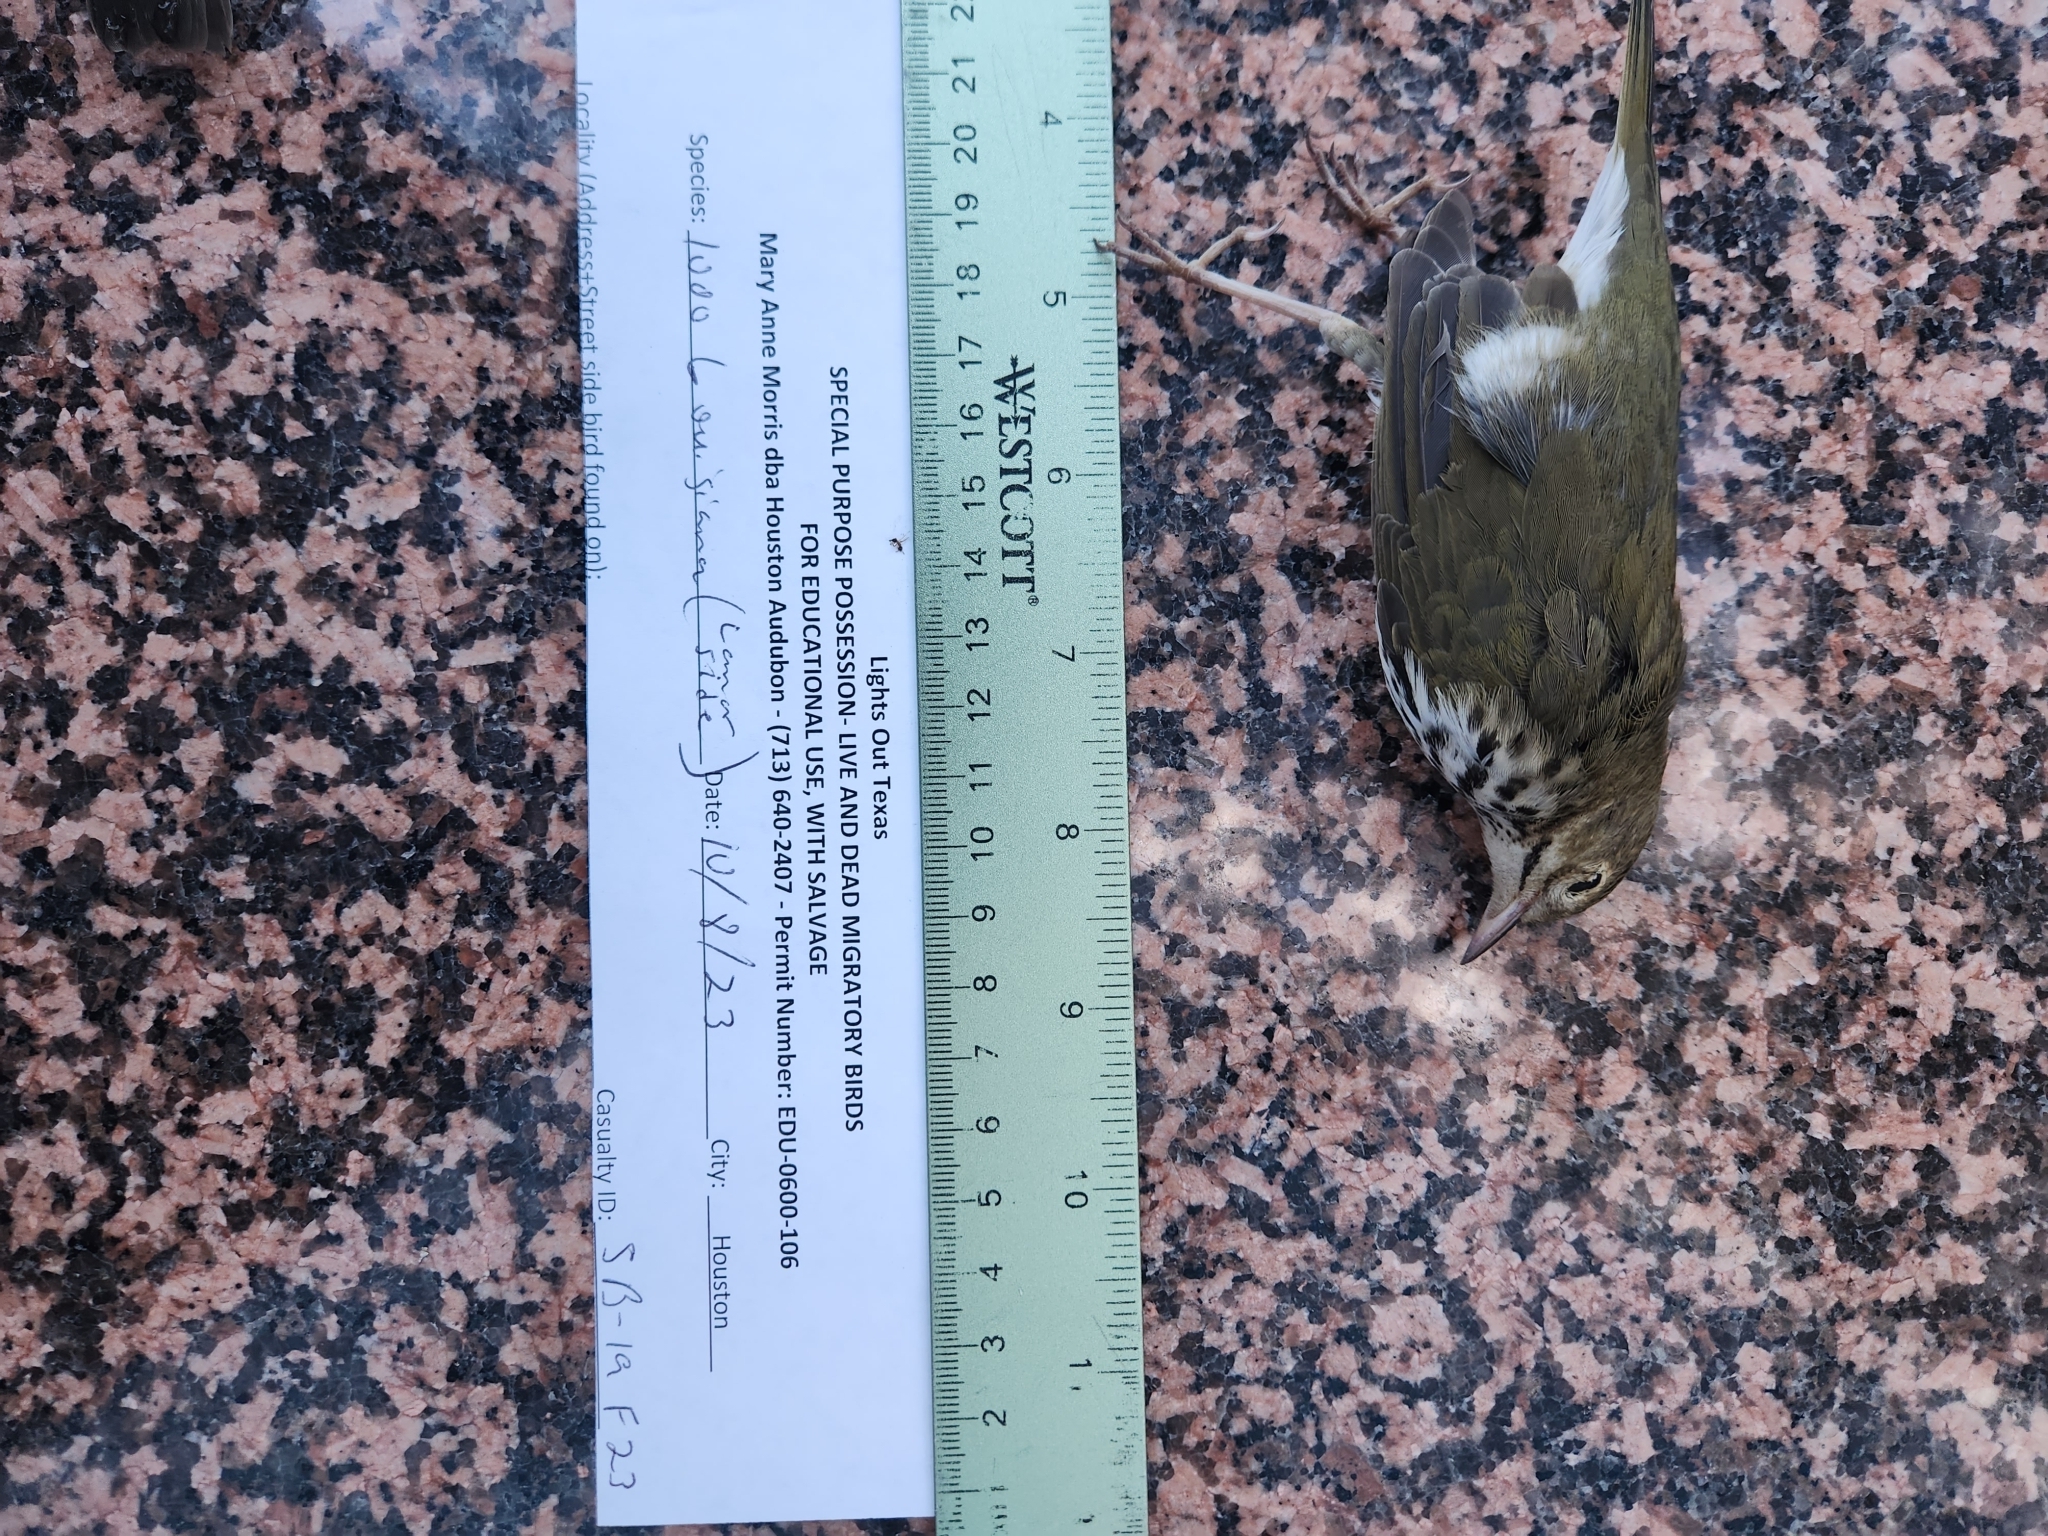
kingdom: Animalia
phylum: Chordata
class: Aves
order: Passeriformes
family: Parulidae
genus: Seiurus
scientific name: Seiurus aurocapilla
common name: Ovenbird
